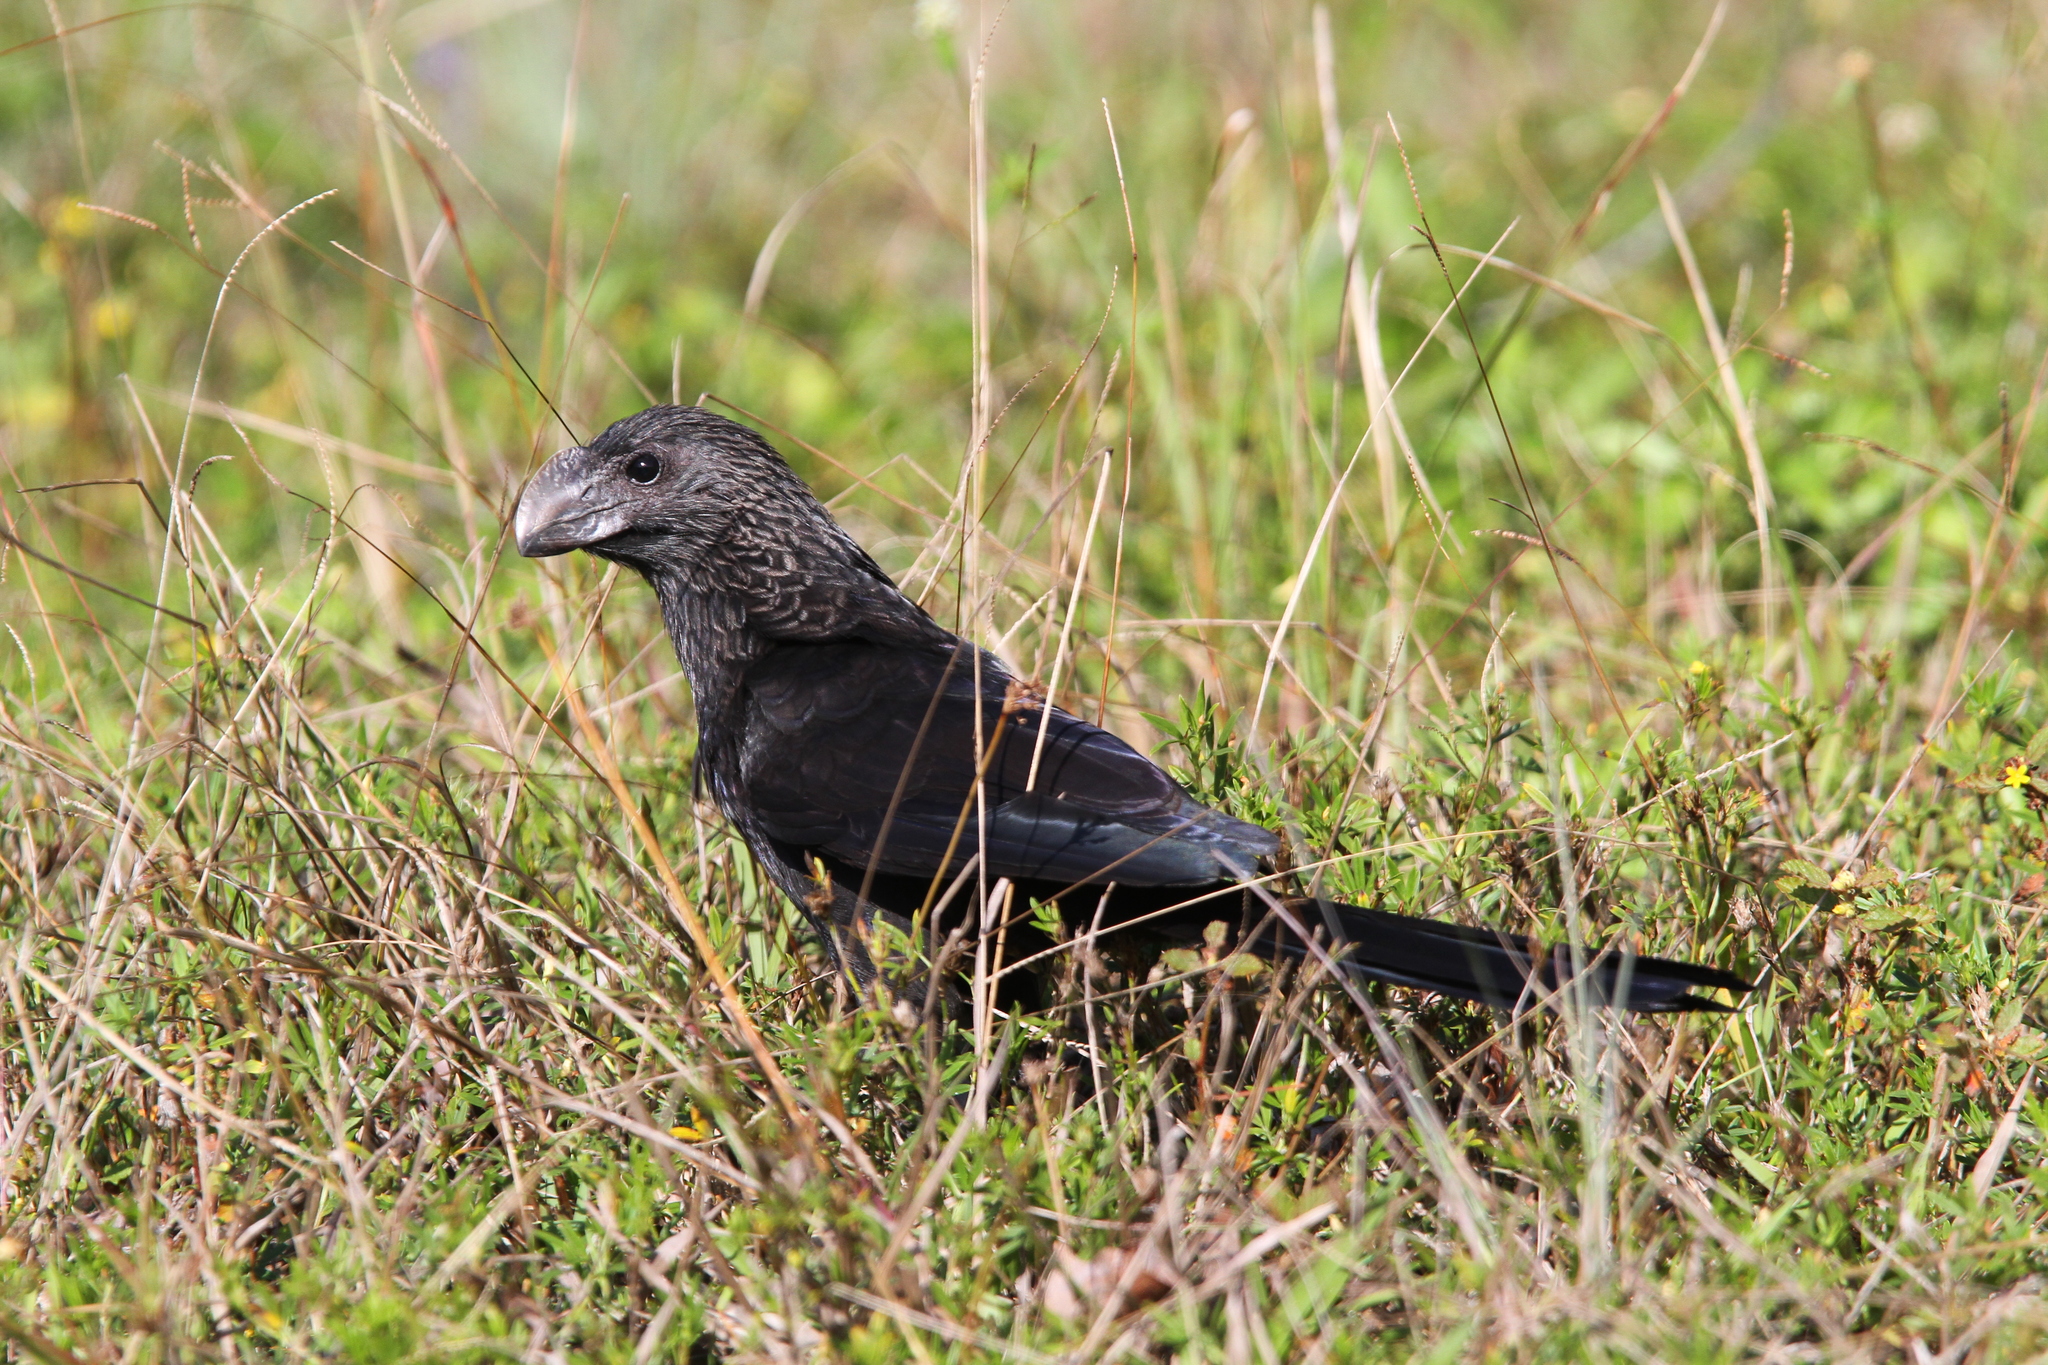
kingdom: Animalia
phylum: Chordata
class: Aves
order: Cuculiformes
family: Cuculidae
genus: Crotophaga
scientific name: Crotophaga ani
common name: Smooth-billed ani
